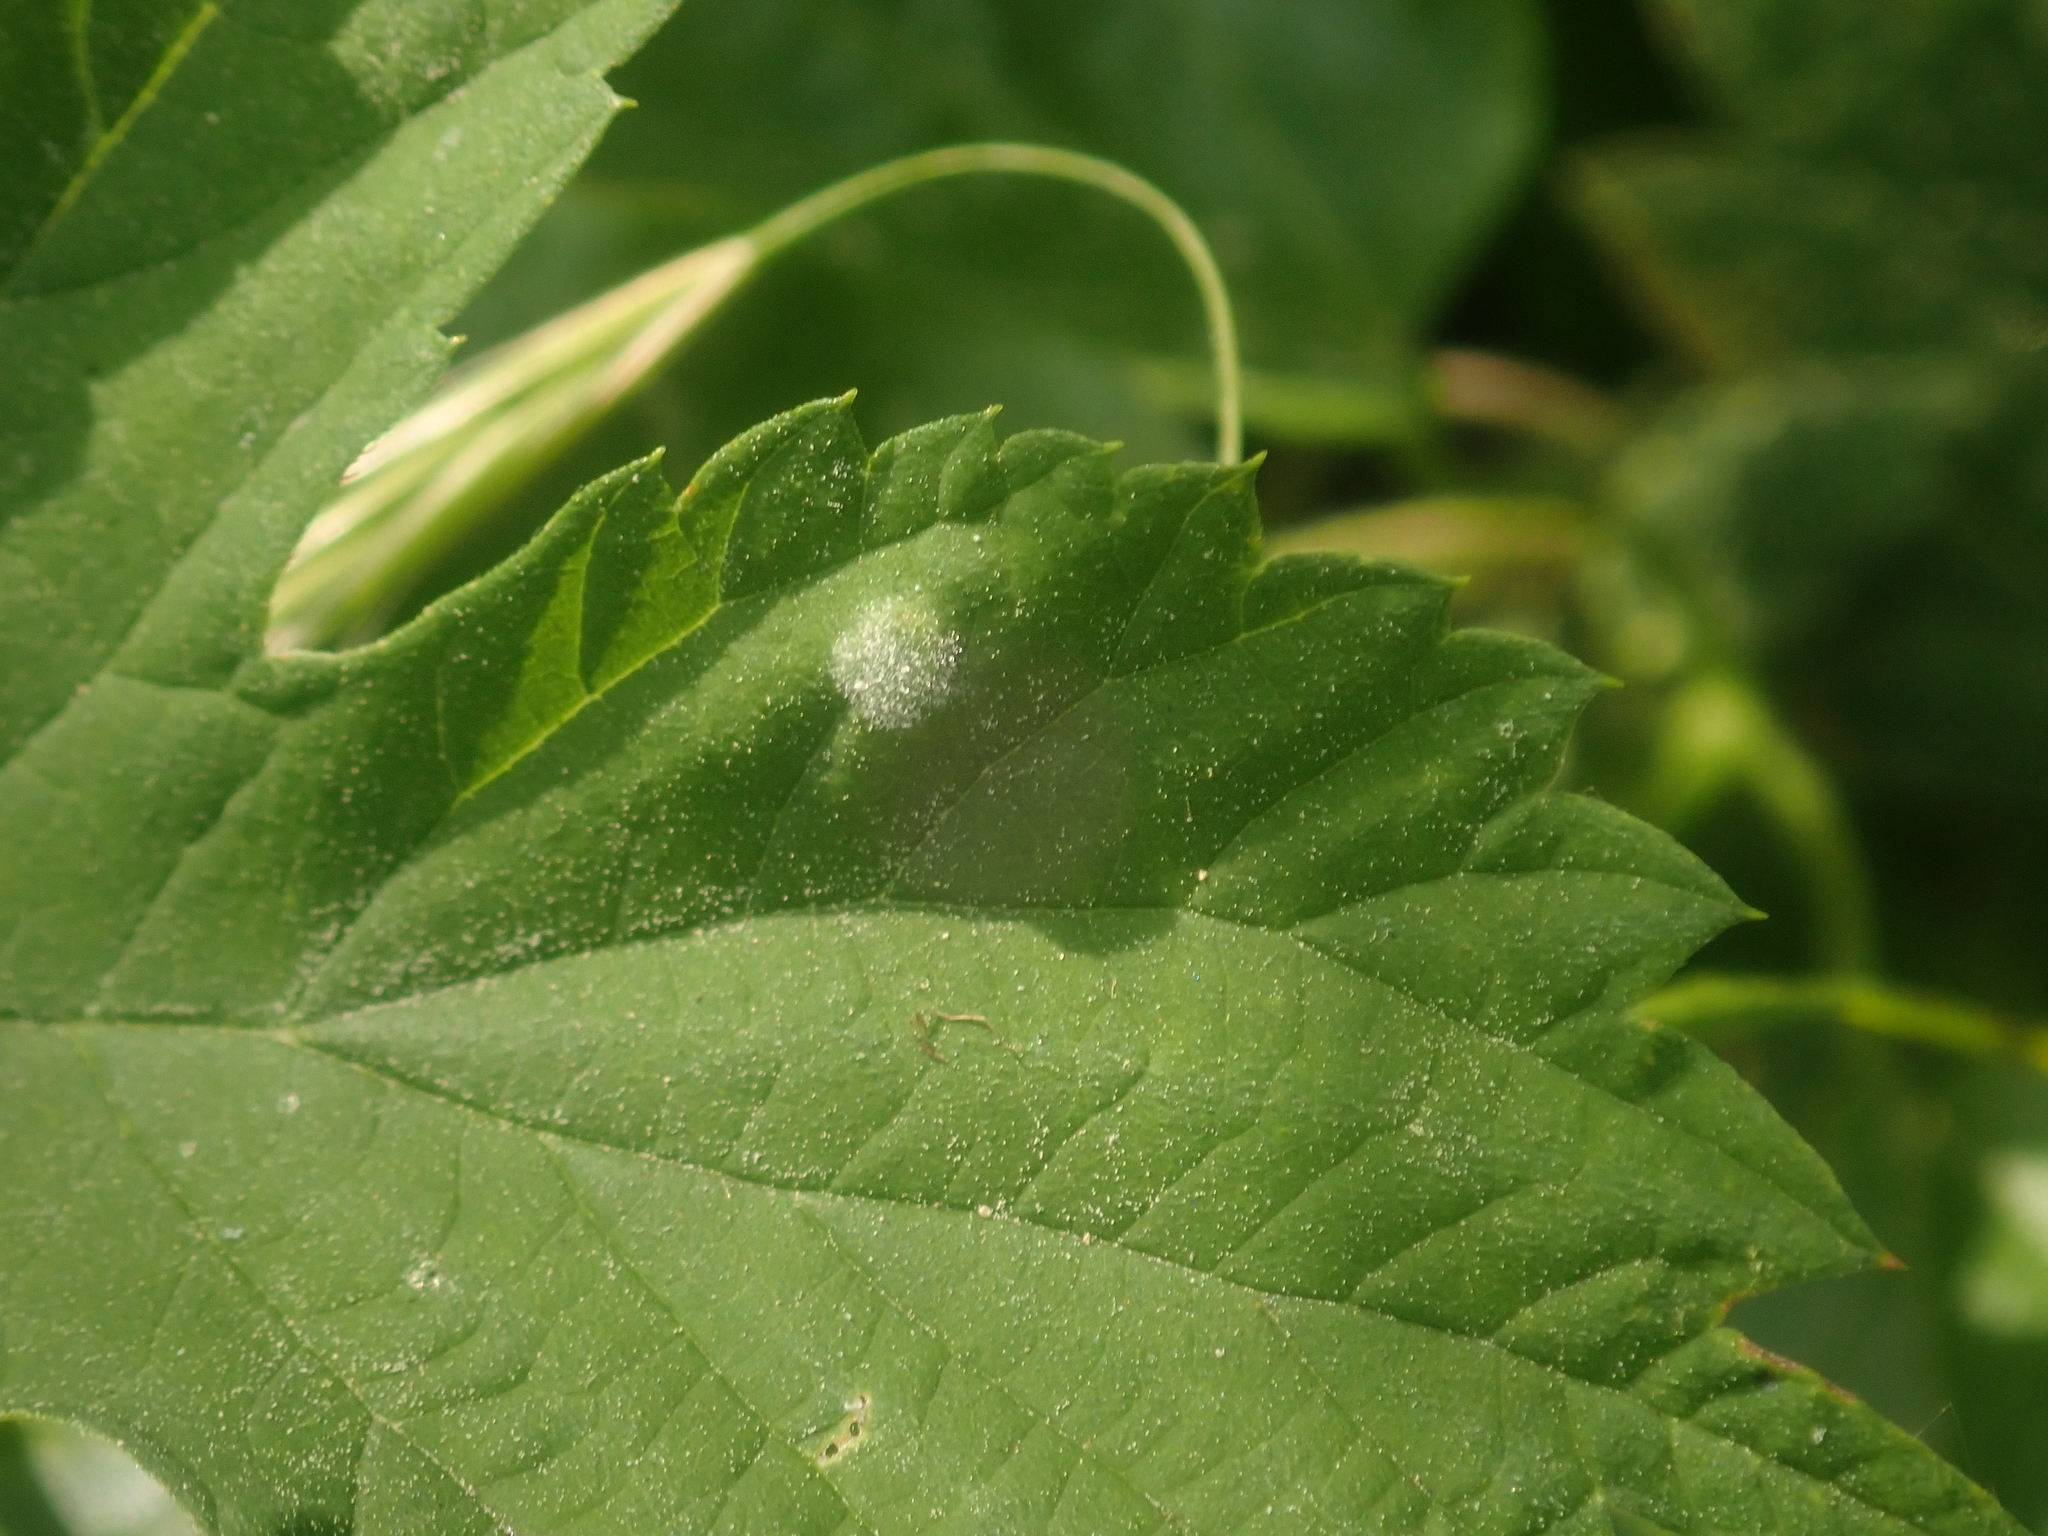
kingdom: Fungi
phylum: Ascomycota
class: Leotiomycetes
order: Helotiales
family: Erysiphaceae
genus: Podosphaera
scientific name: Podosphaera macularis
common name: Powdery mildew
